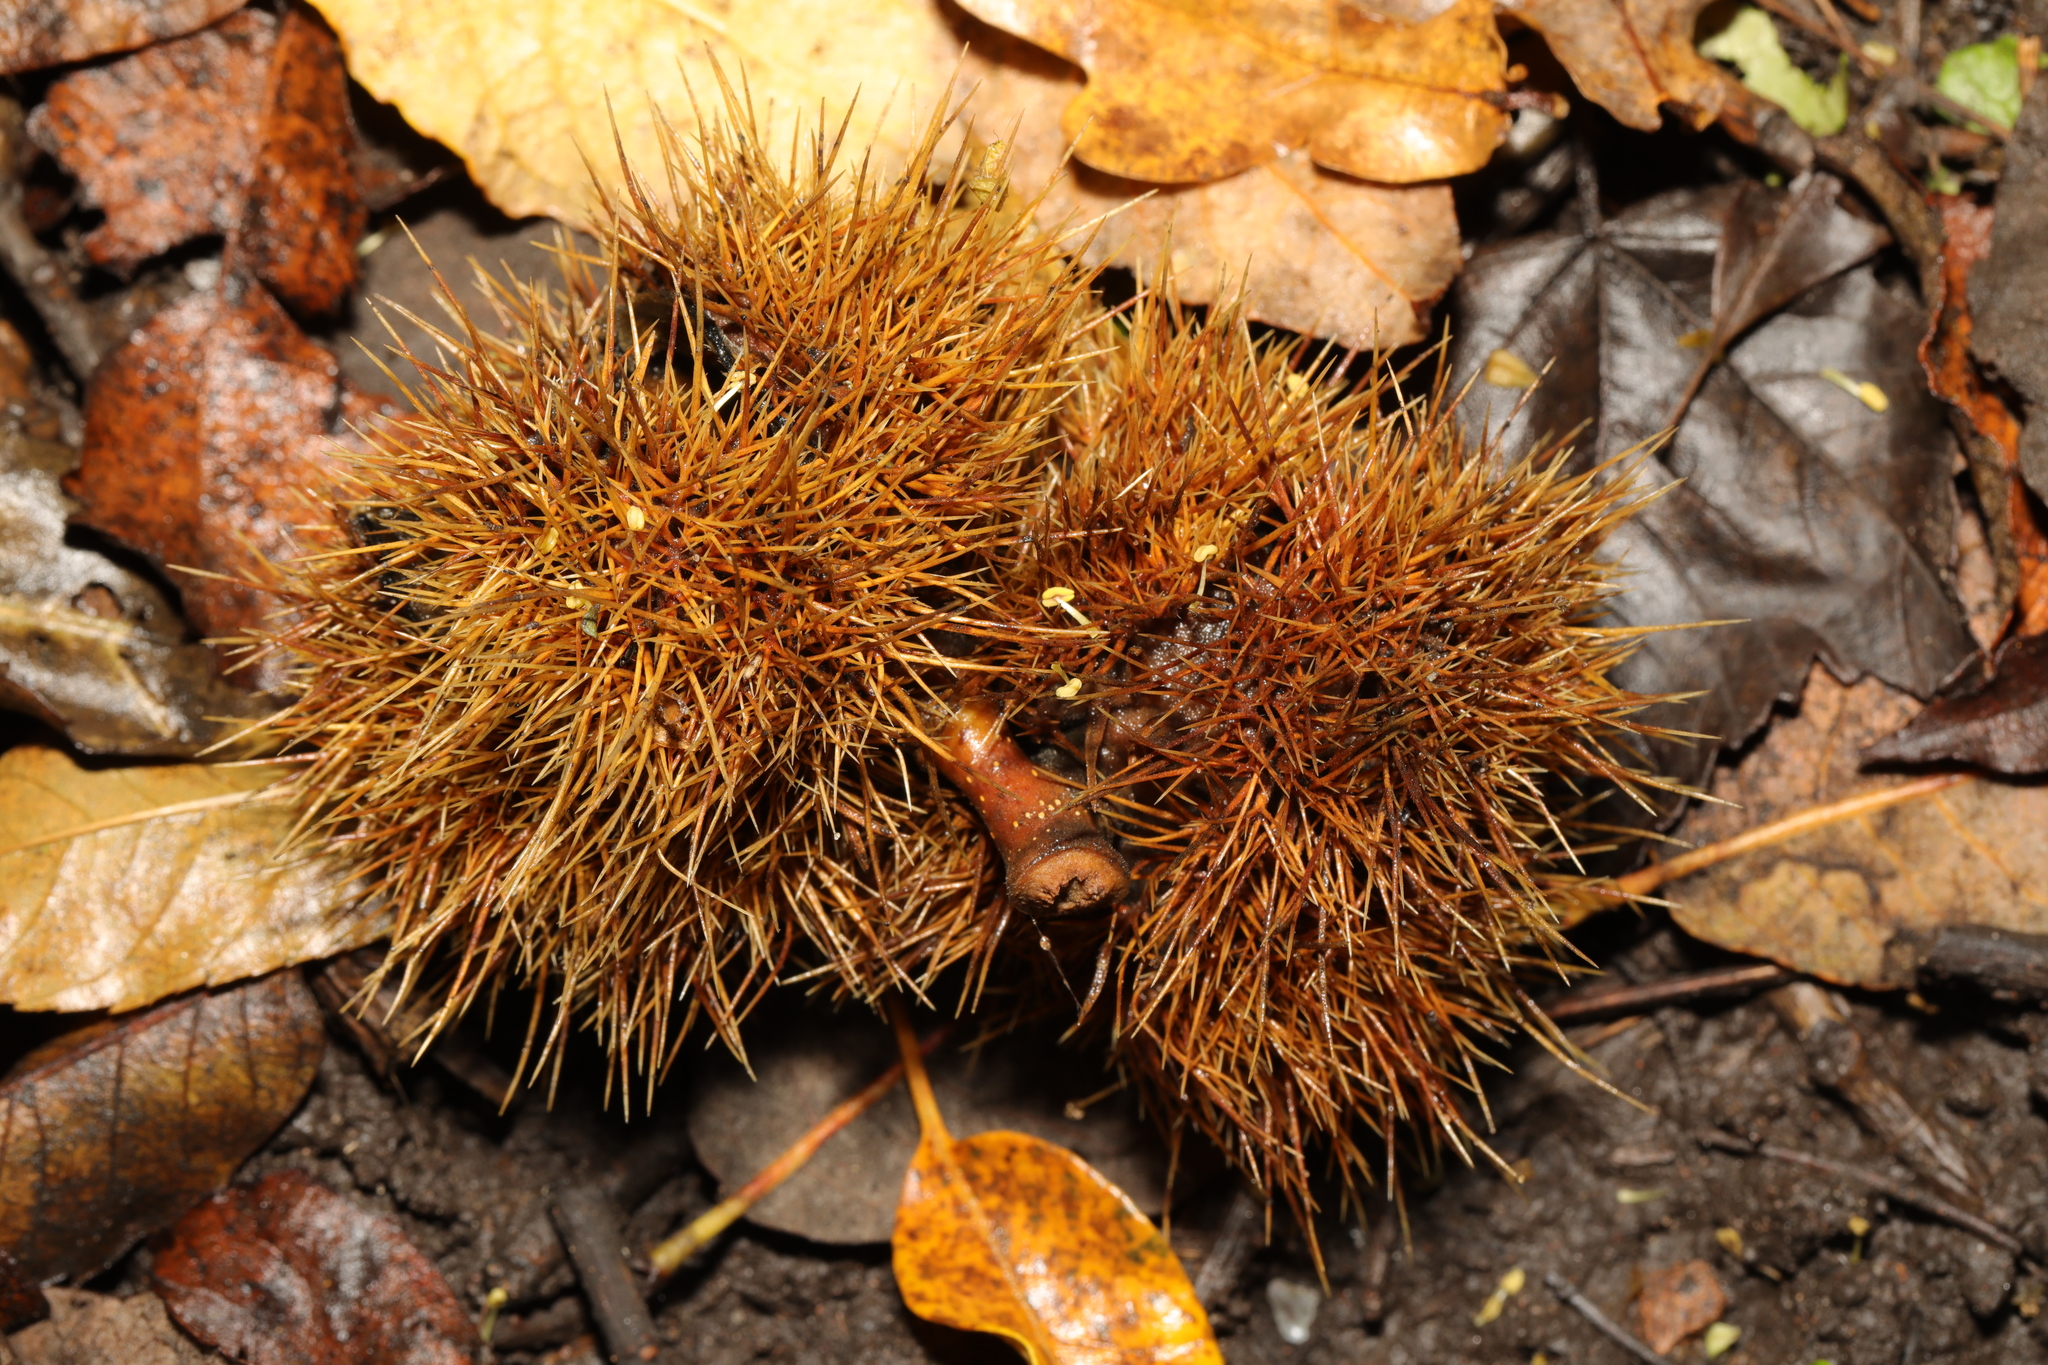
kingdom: Plantae
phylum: Tracheophyta
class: Magnoliopsida
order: Fagales
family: Fagaceae
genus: Castanea
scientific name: Castanea sativa
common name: Sweet chestnut
